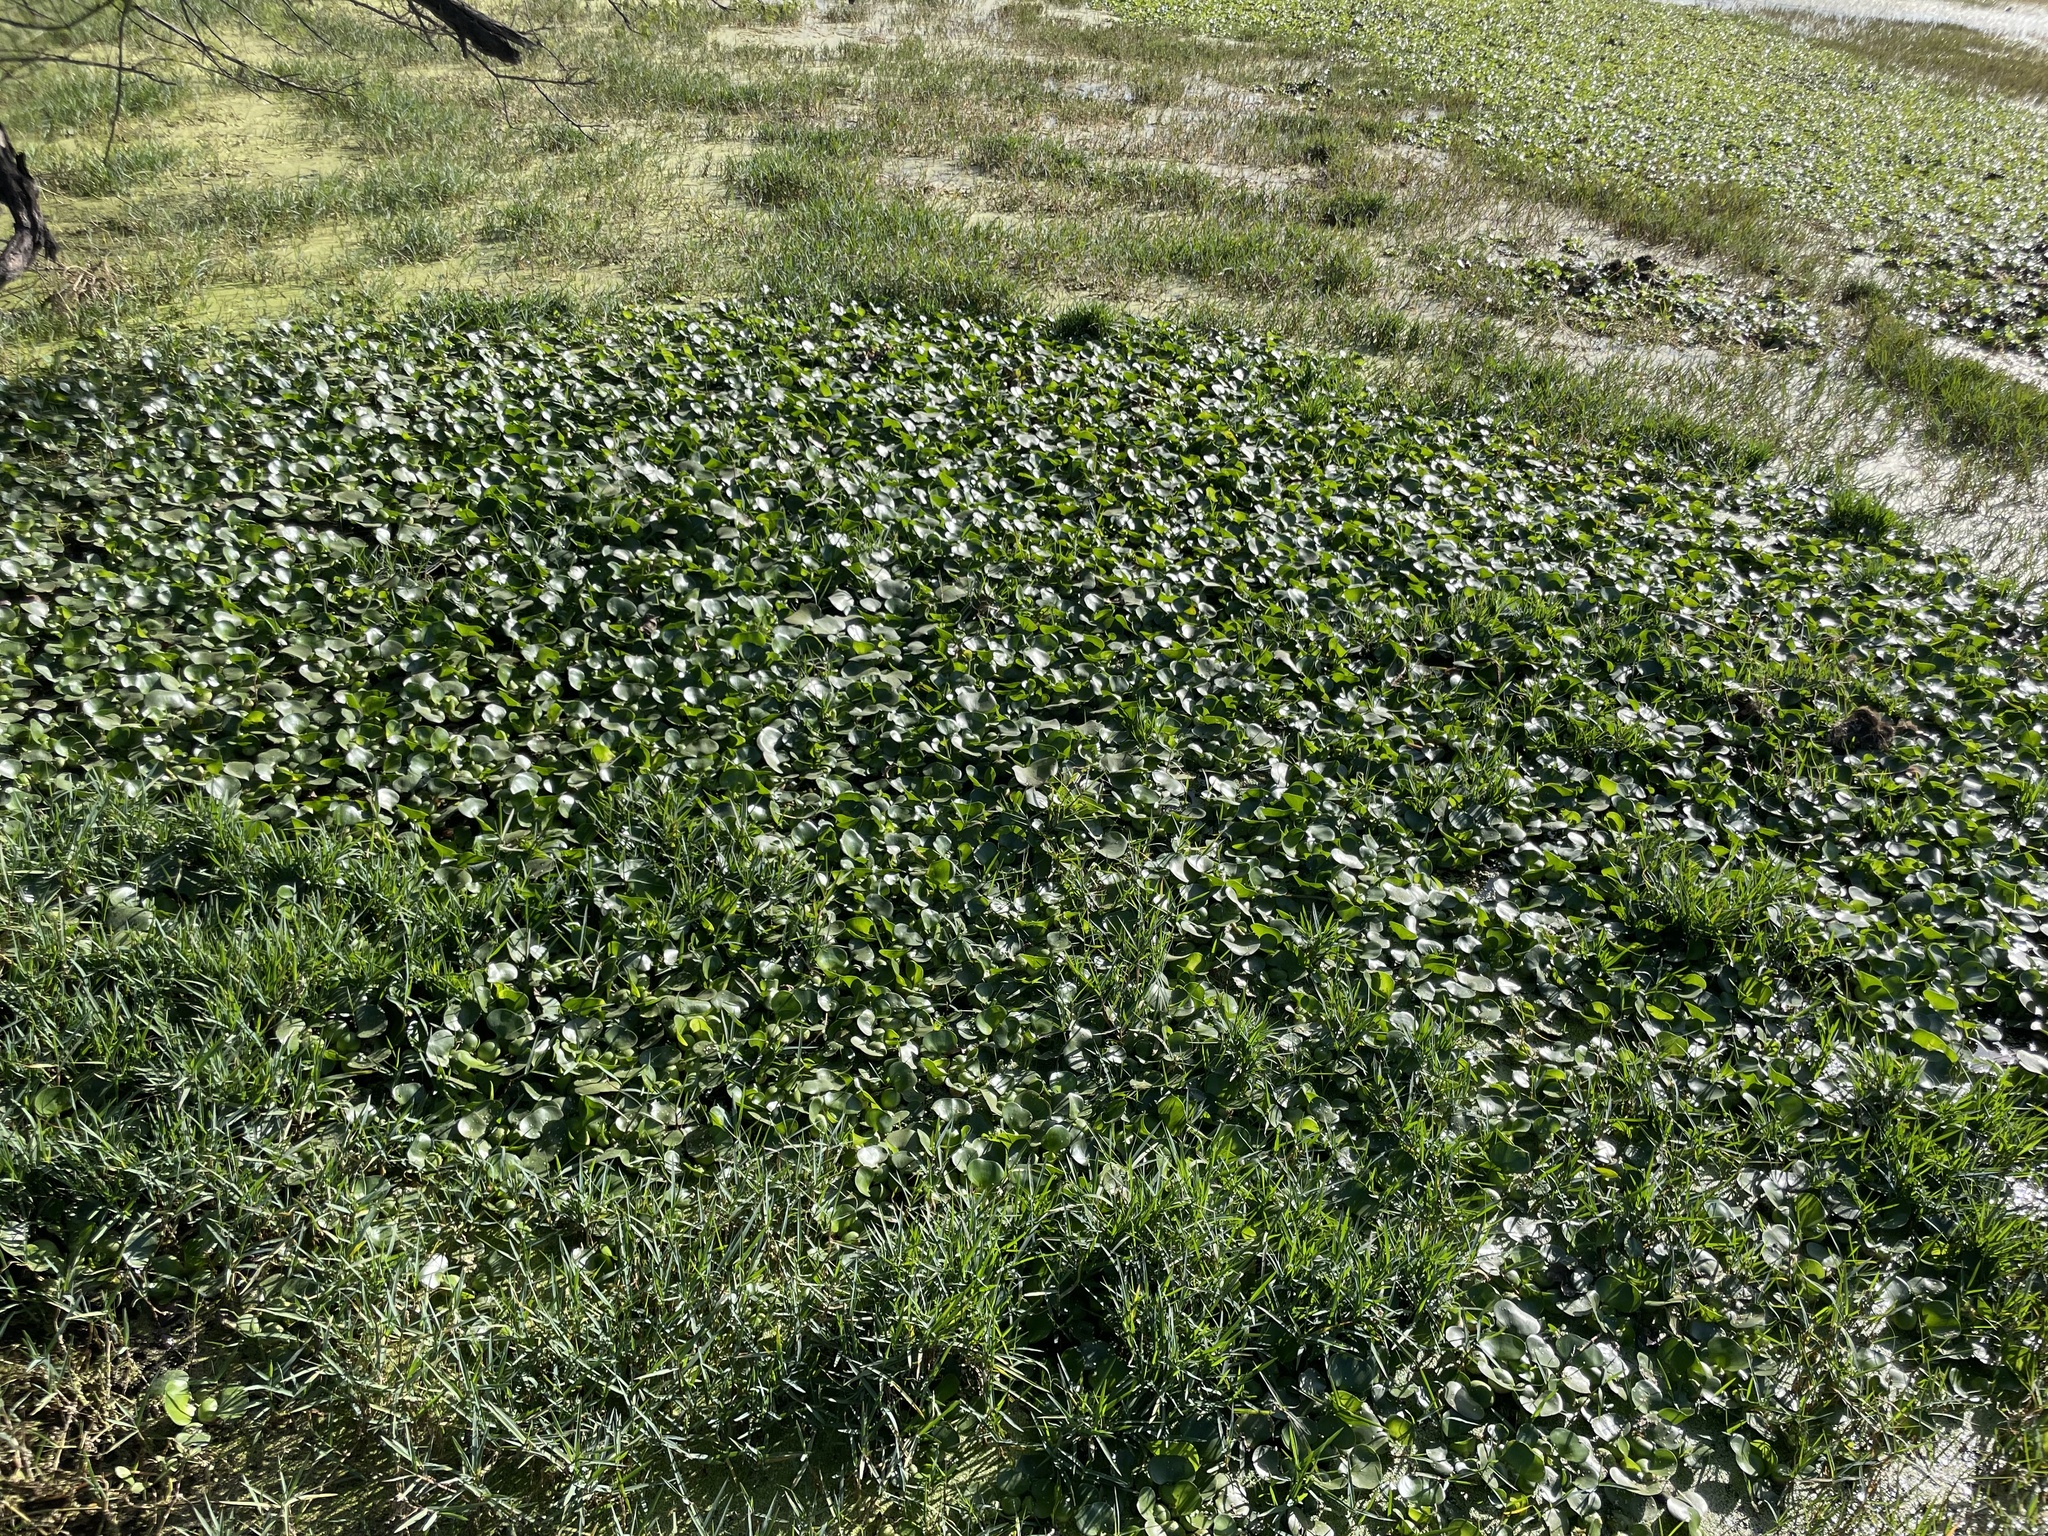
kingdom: Plantae
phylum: Tracheophyta
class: Liliopsida
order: Commelinales
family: Pontederiaceae
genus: Pontederia
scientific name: Pontederia crassipes
